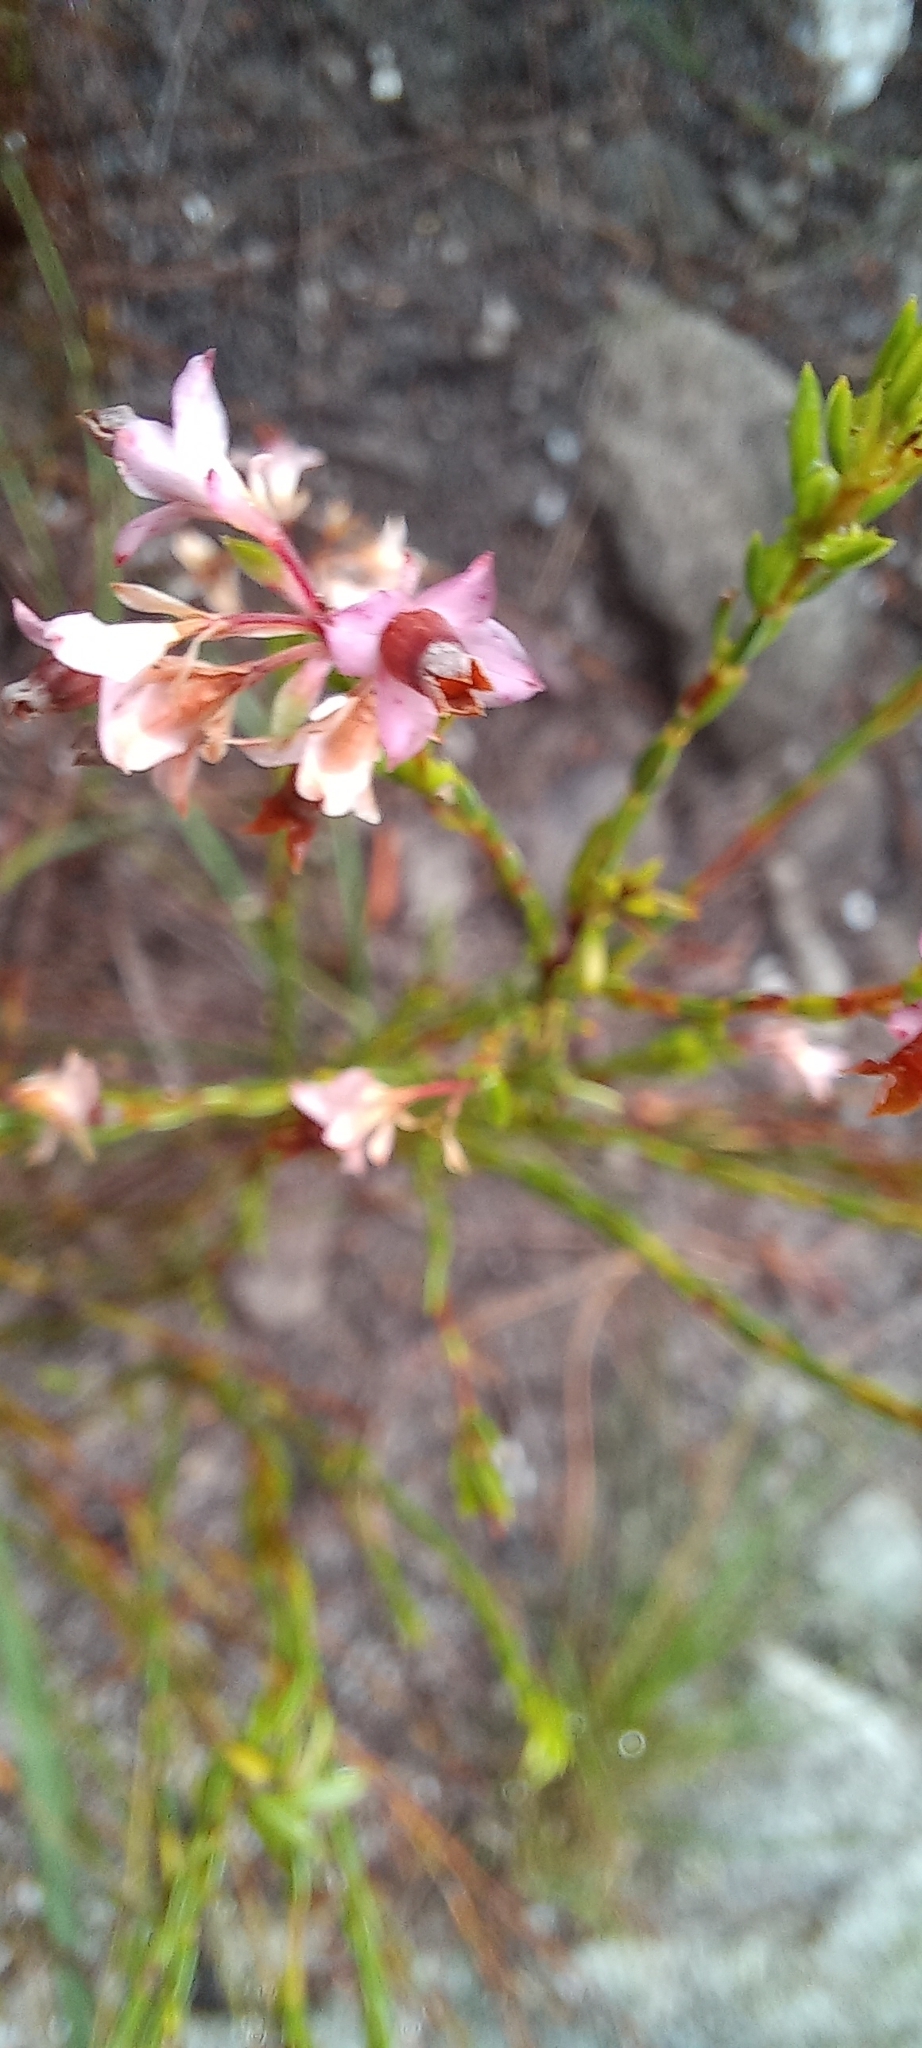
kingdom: Plantae
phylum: Tracheophyta
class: Magnoliopsida
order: Ericales
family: Ericaceae
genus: Erica
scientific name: Erica corifolia
